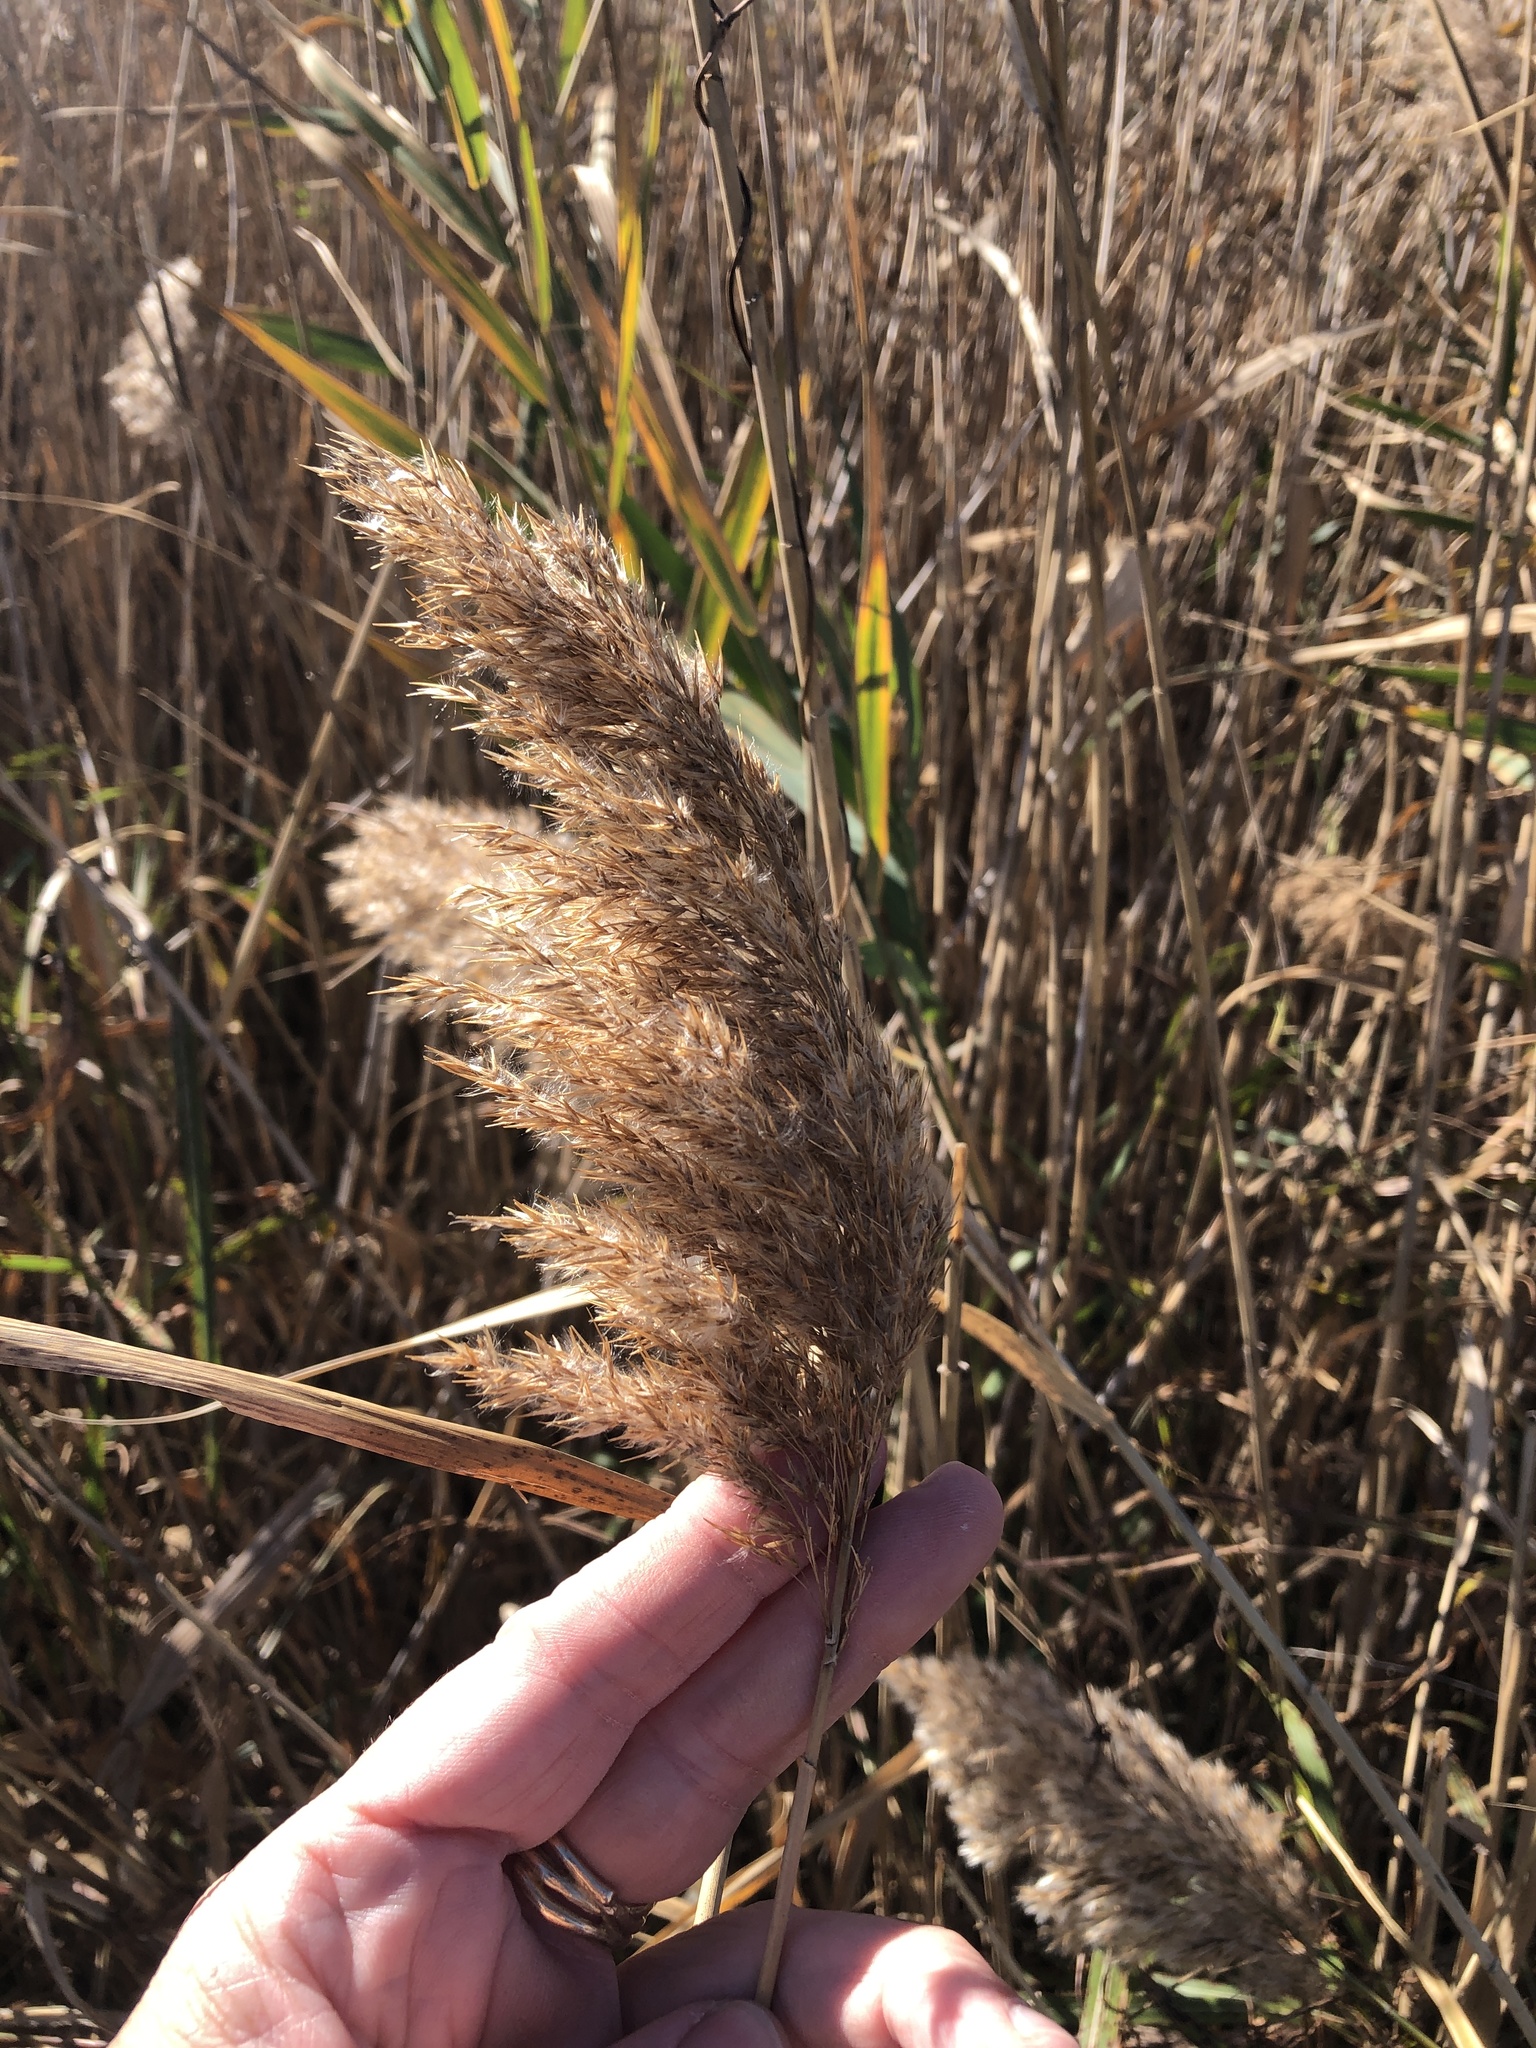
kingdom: Plantae
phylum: Tracheophyta
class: Liliopsida
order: Poales
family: Poaceae
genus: Phragmites
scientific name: Phragmites australis
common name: Common reed
